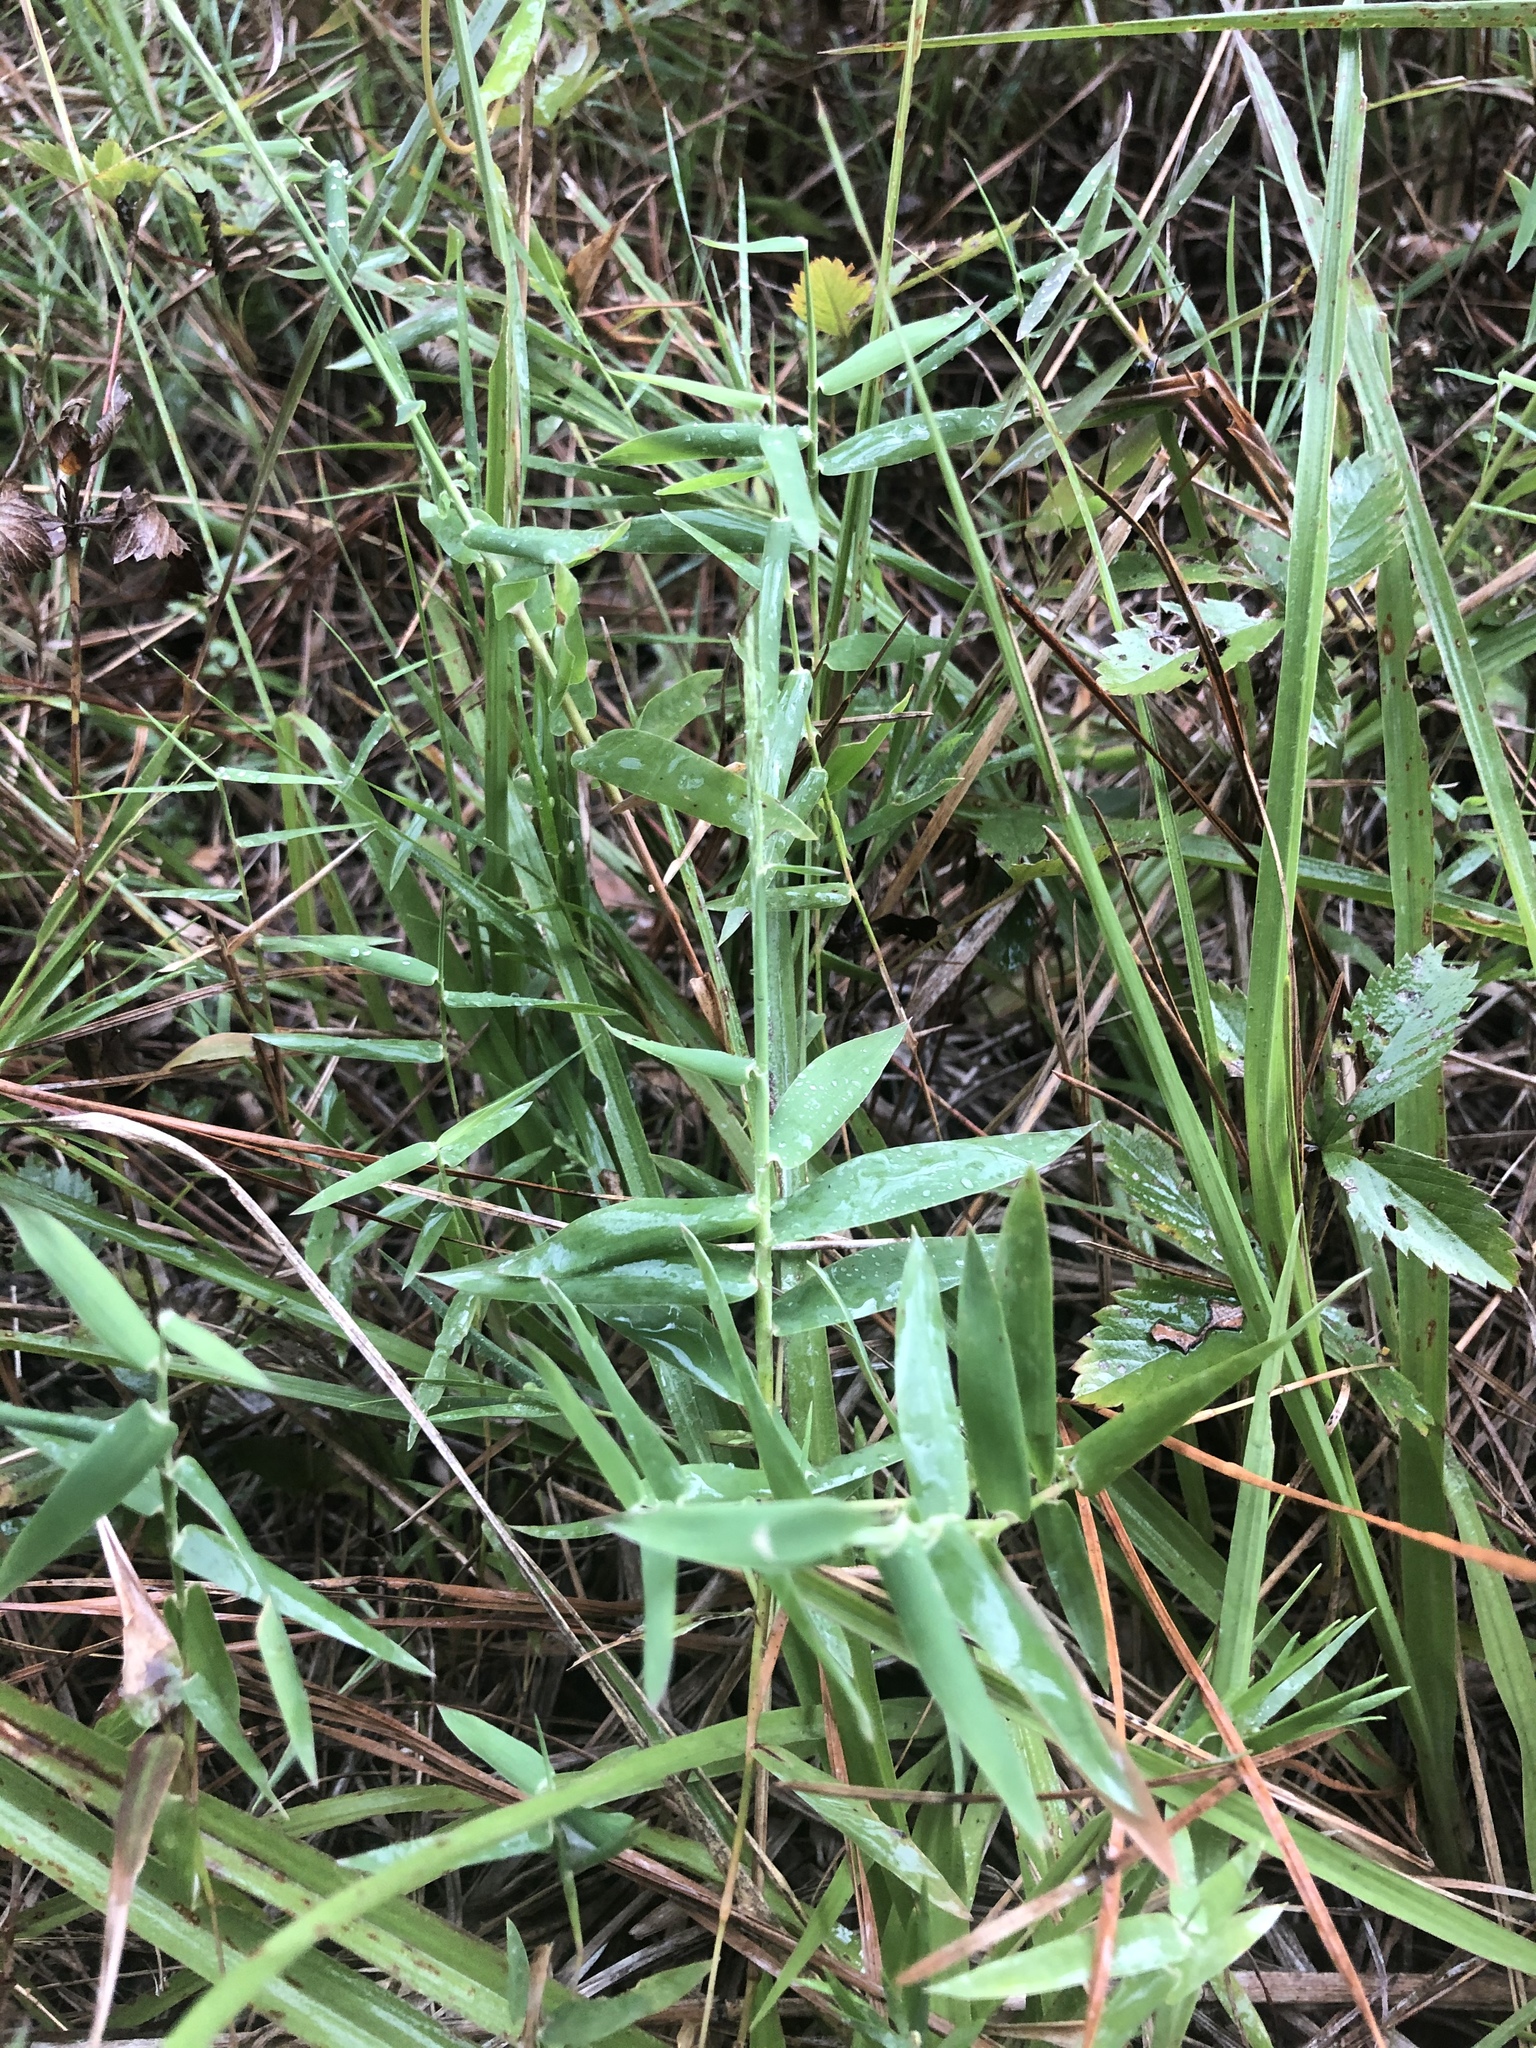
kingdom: Plantae
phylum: Tracheophyta
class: Liliopsida
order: Poales
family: Poaceae
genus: Gymnopogon
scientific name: Gymnopogon brevifolius
